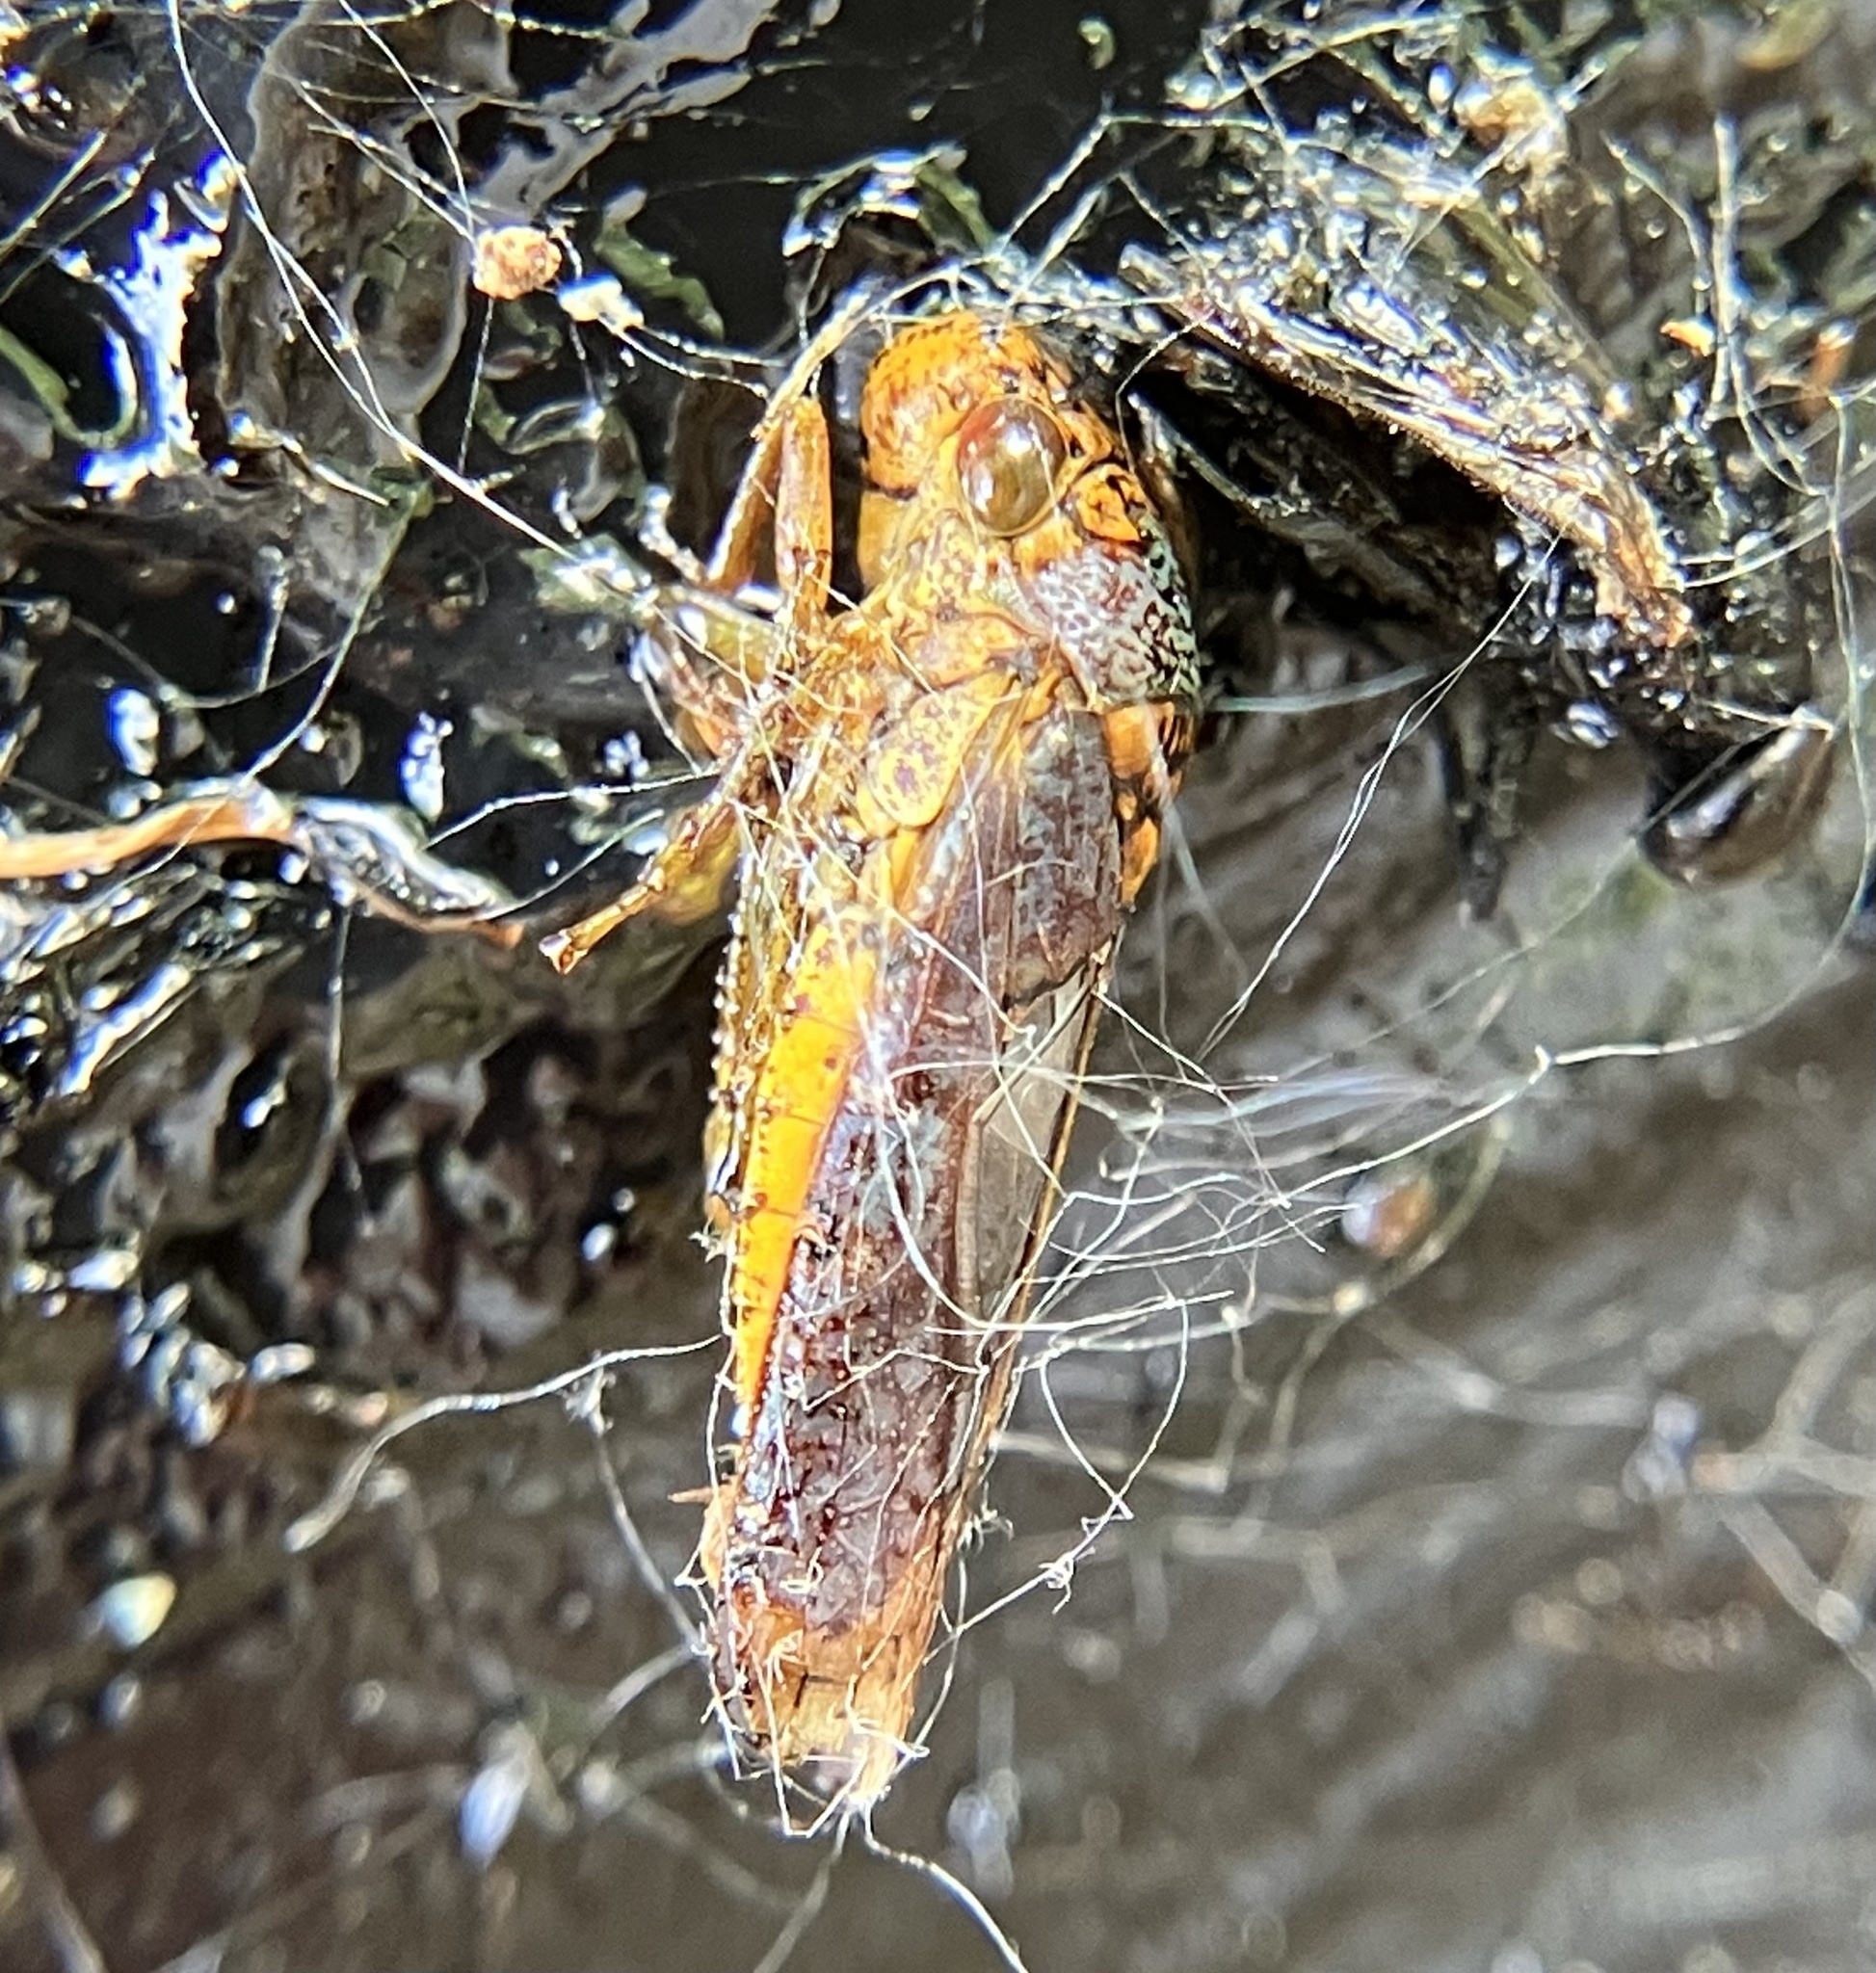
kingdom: Animalia
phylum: Arthropoda
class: Insecta
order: Hemiptera
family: Cicadellidae
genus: Oncometopia
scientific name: Oncometopia orbona
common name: Broad-headed sharpshooter
